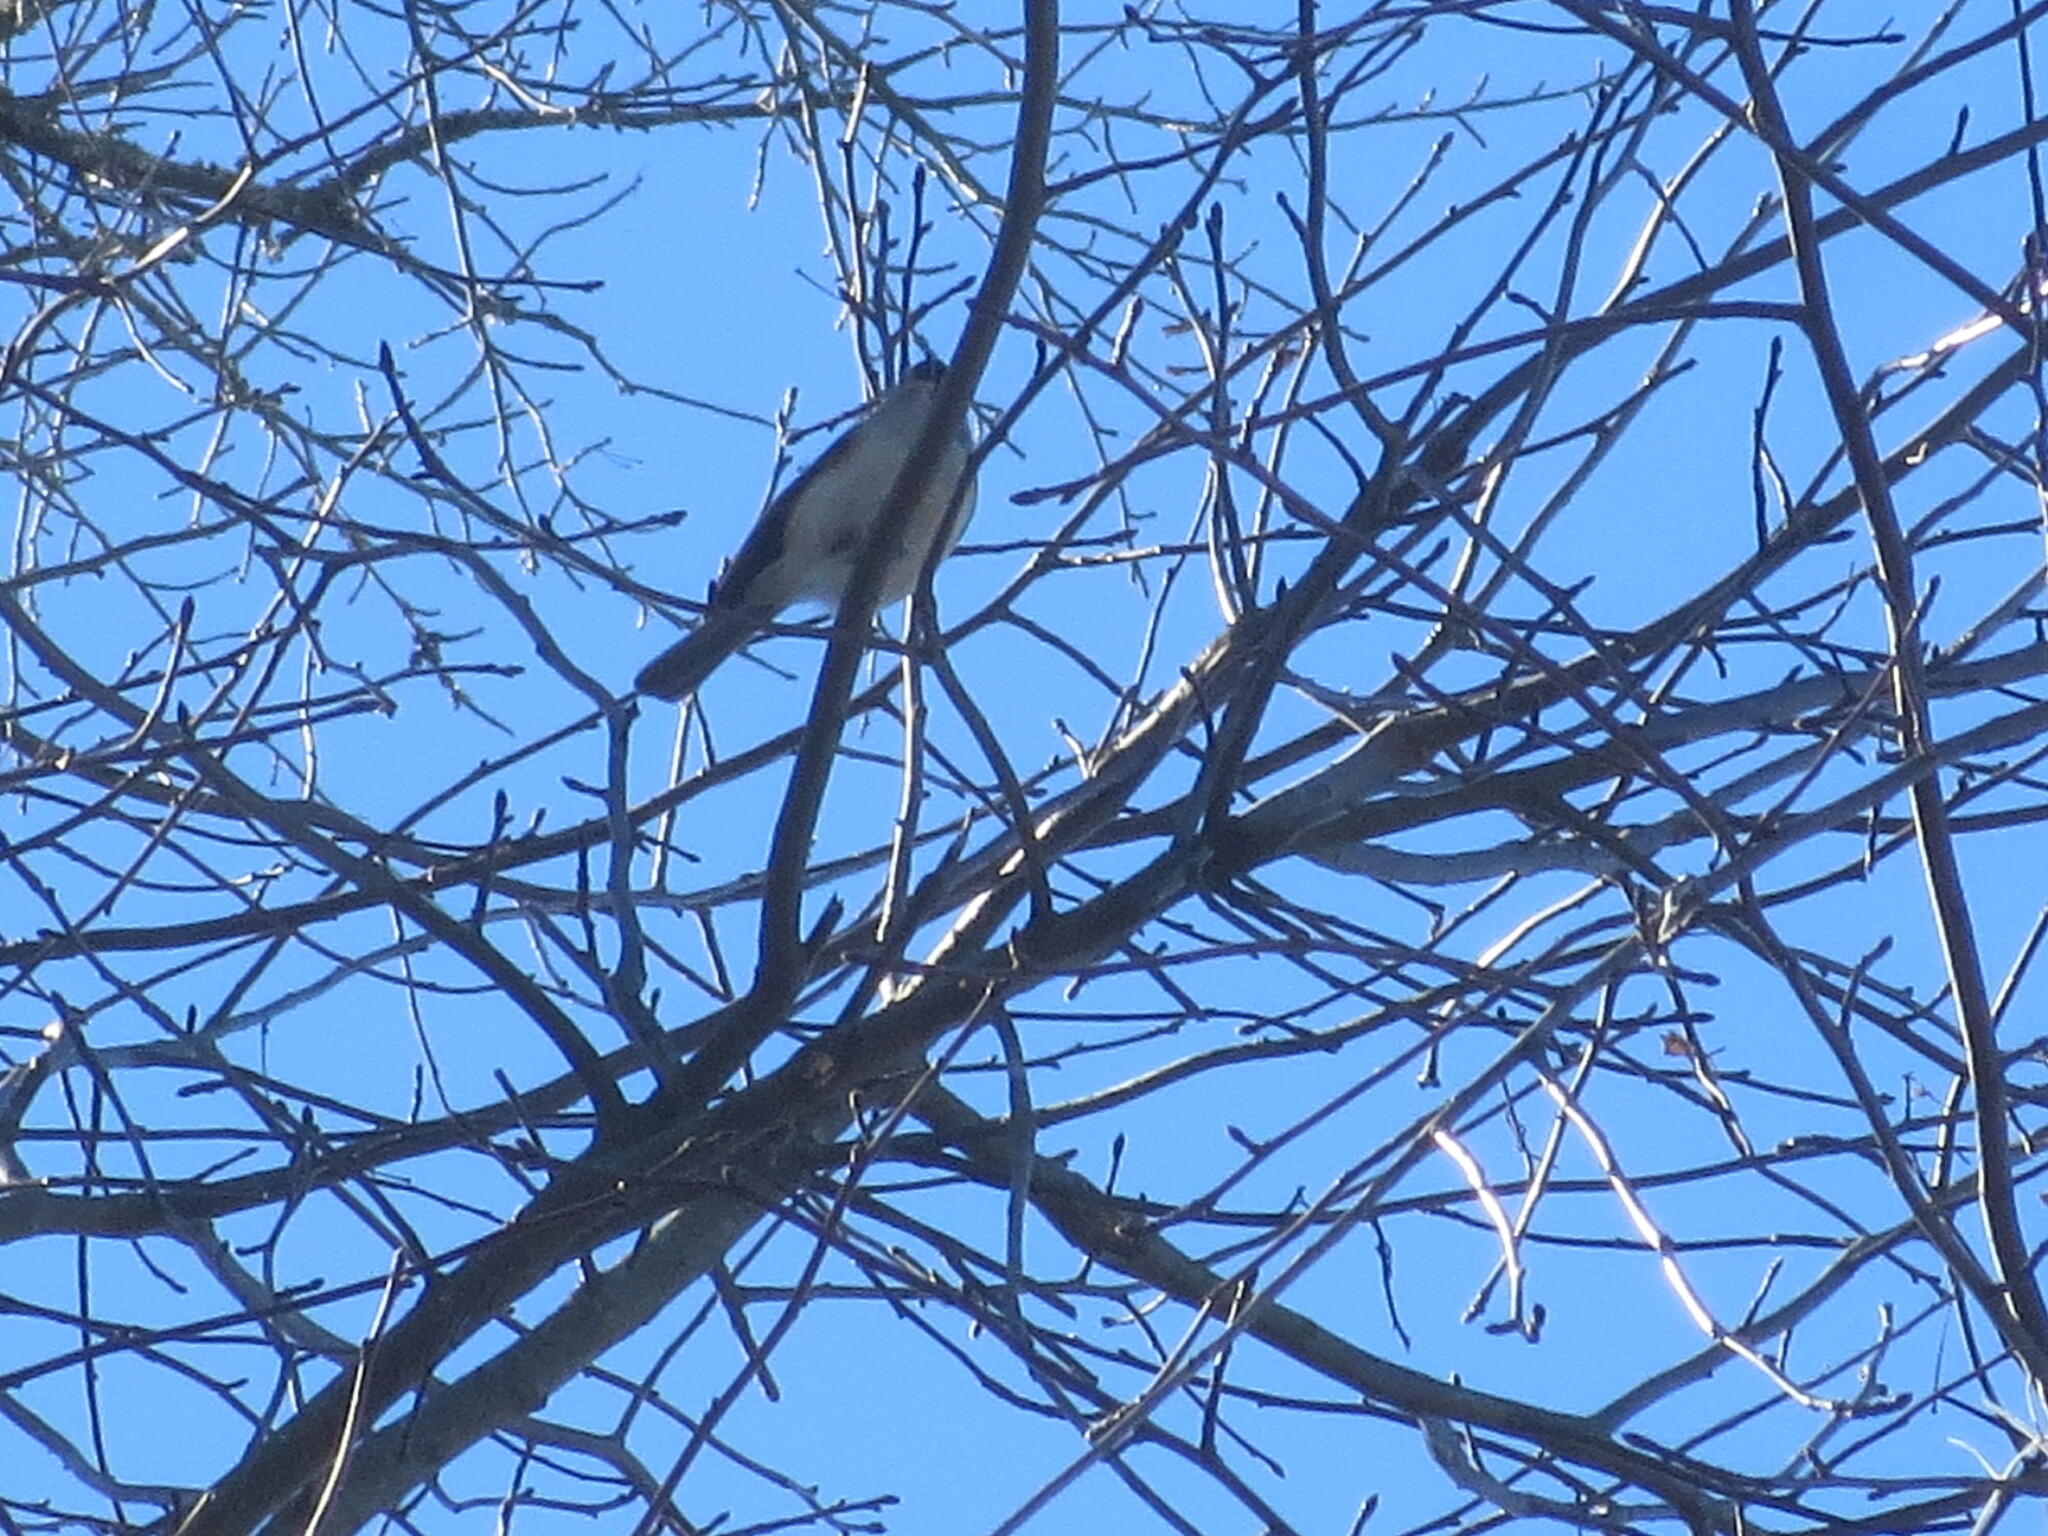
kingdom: Animalia
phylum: Chordata
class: Aves
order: Passeriformes
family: Paridae
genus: Baeolophus
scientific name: Baeolophus bicolor
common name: Tufted titmouse
